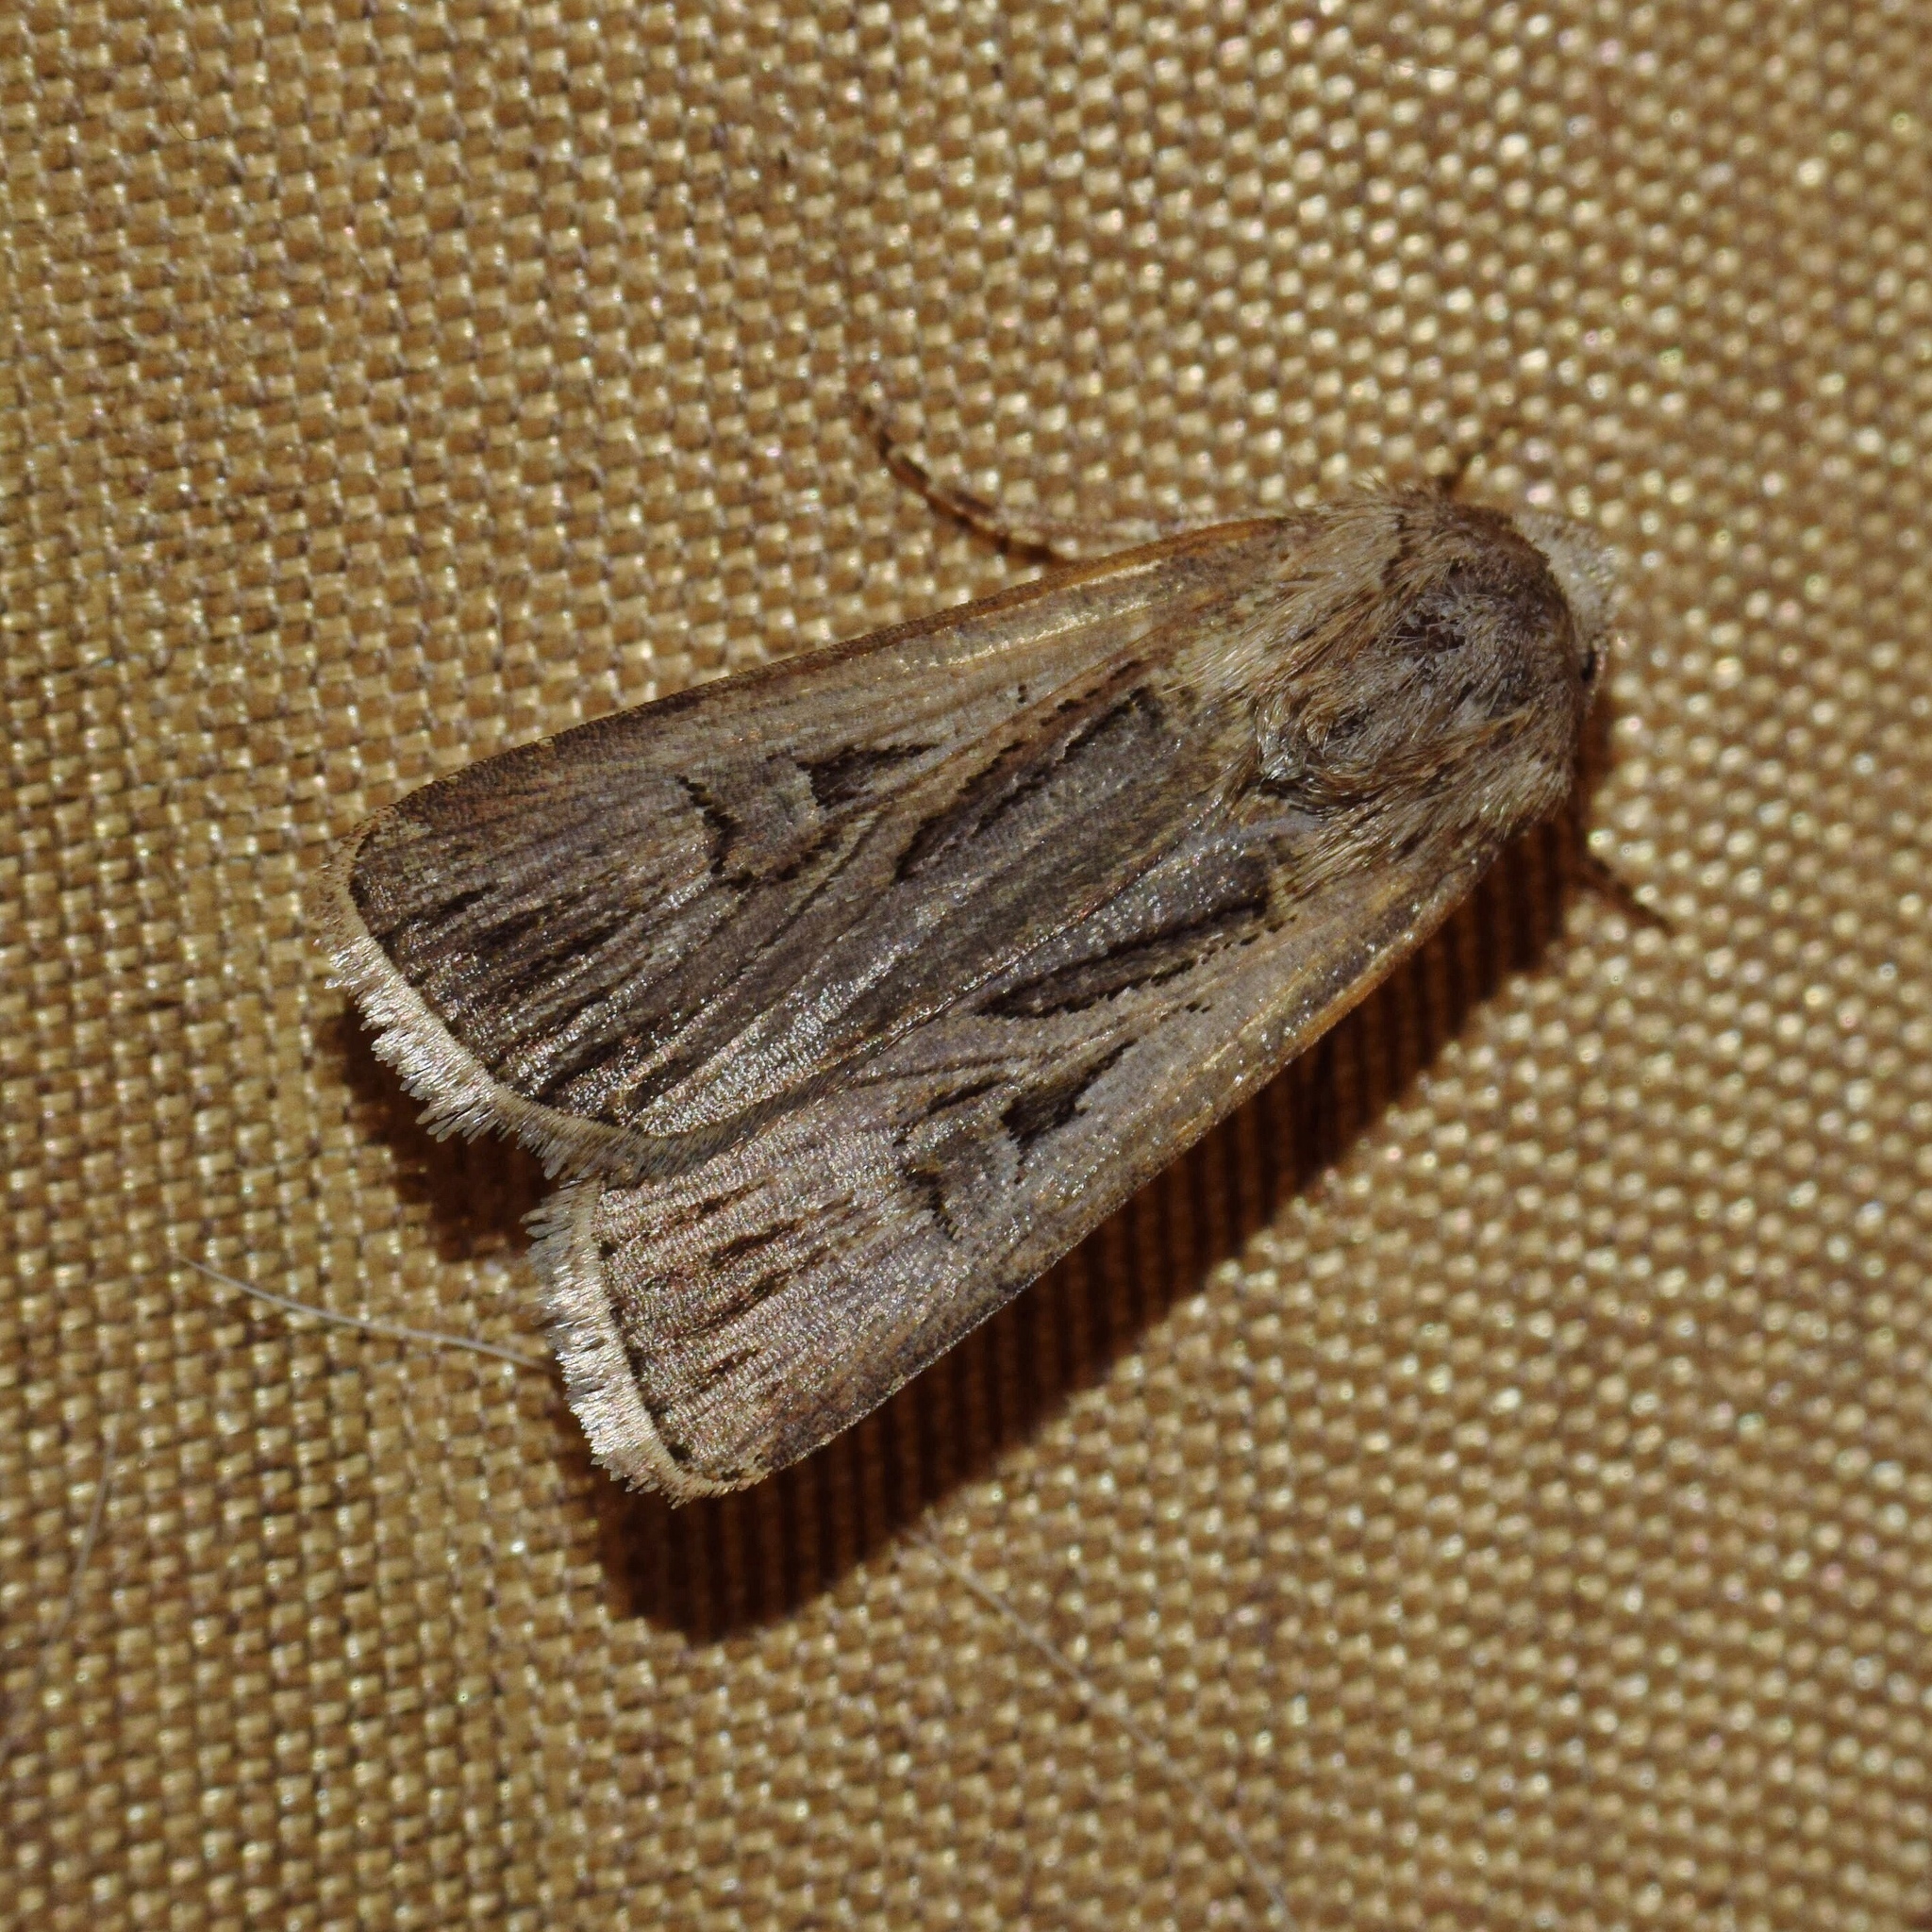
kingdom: Animalia
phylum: Arthropoda
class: Insecta
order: Lepidoptera
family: Noctuidae
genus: Agrotis
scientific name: Agrotis
